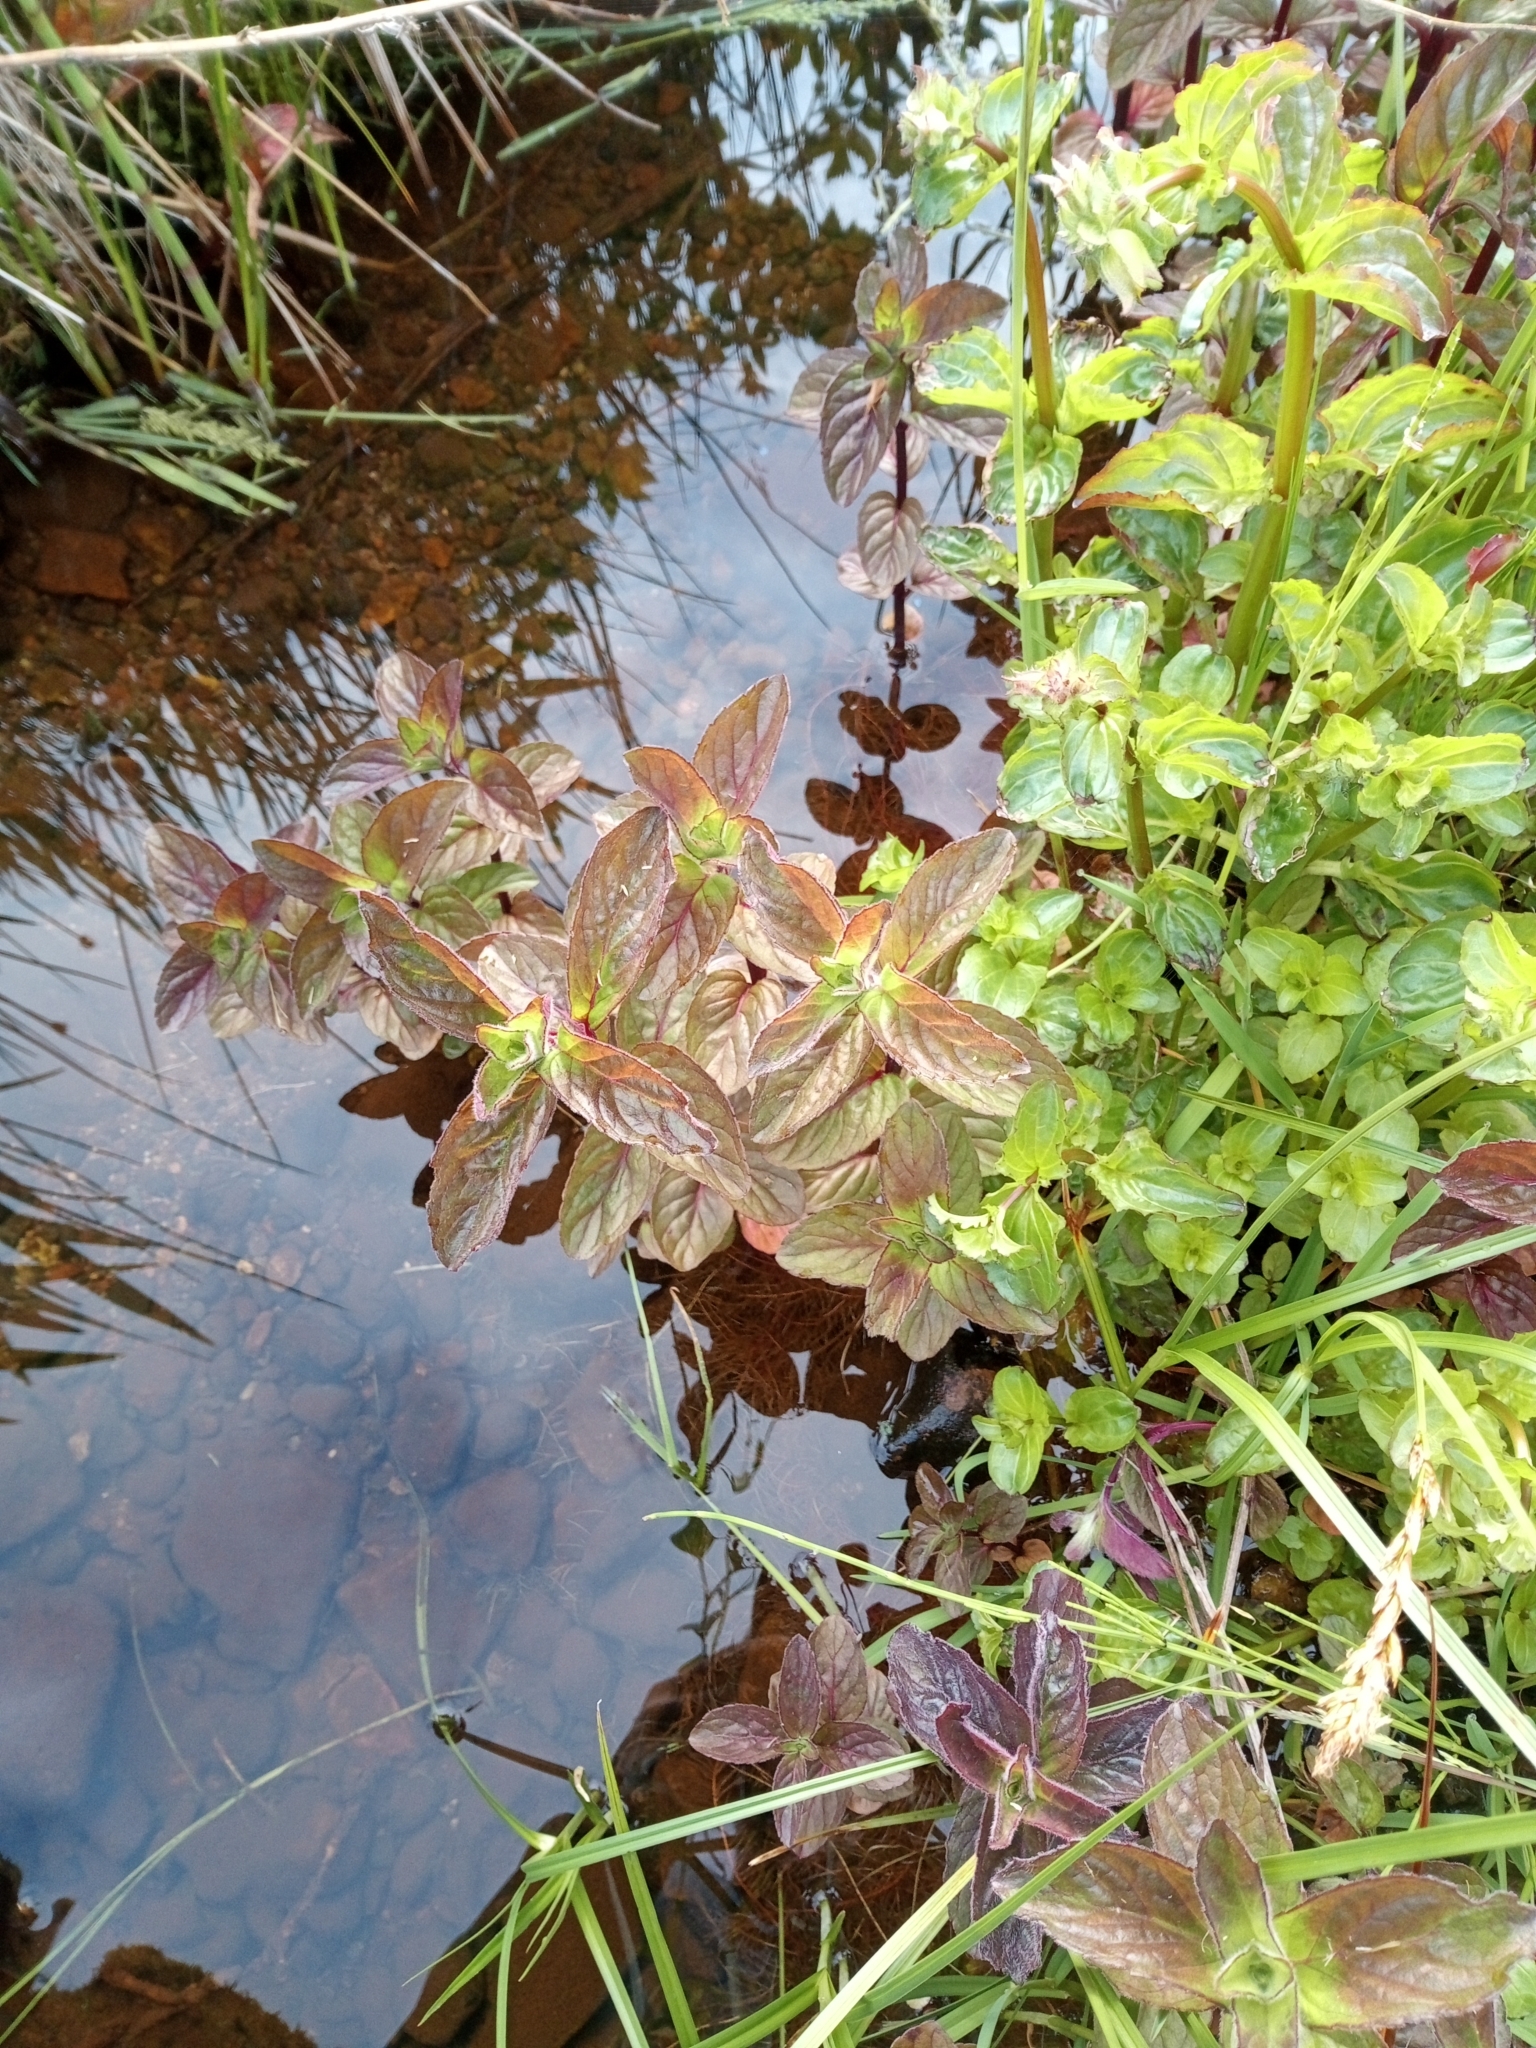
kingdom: Plantae
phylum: Tracheophyta
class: Magnoliopsida
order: Lamiales
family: Lamiaceae
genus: Mentha
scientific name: Mentha aquatica
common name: Water mint
